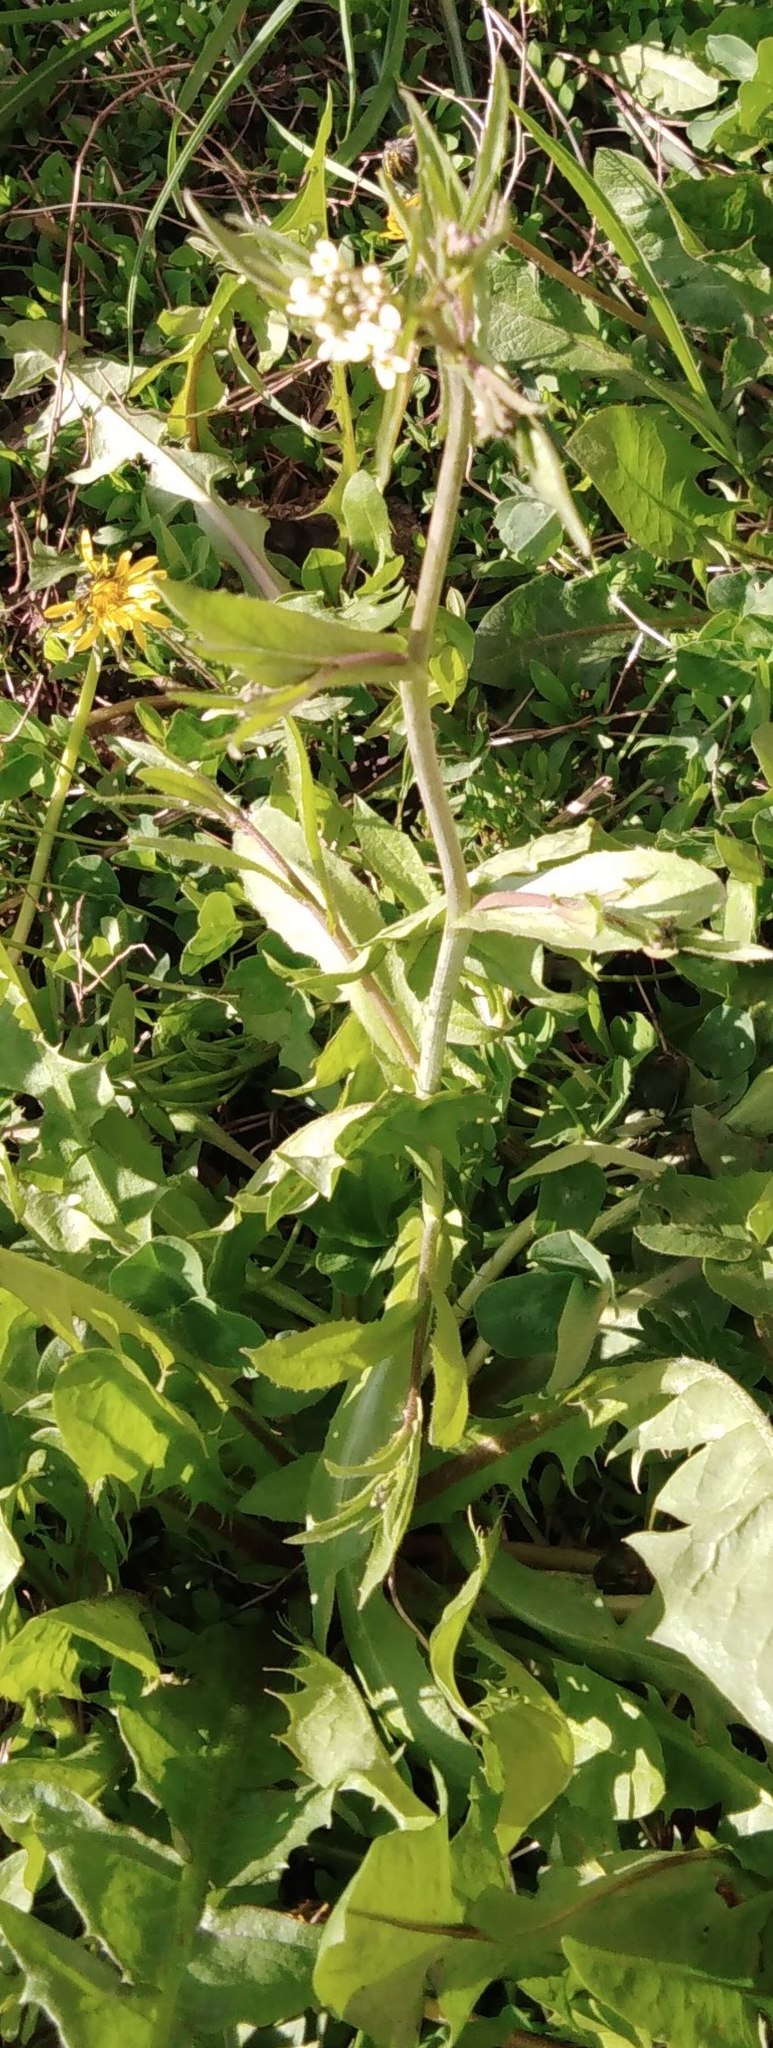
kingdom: Plantae
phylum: Tracheophyta
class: Magnoliopsida
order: Brassicales
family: Brassicaceae
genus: Capsella
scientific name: Capsella bursa-pastoris
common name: Shepherd's purse
